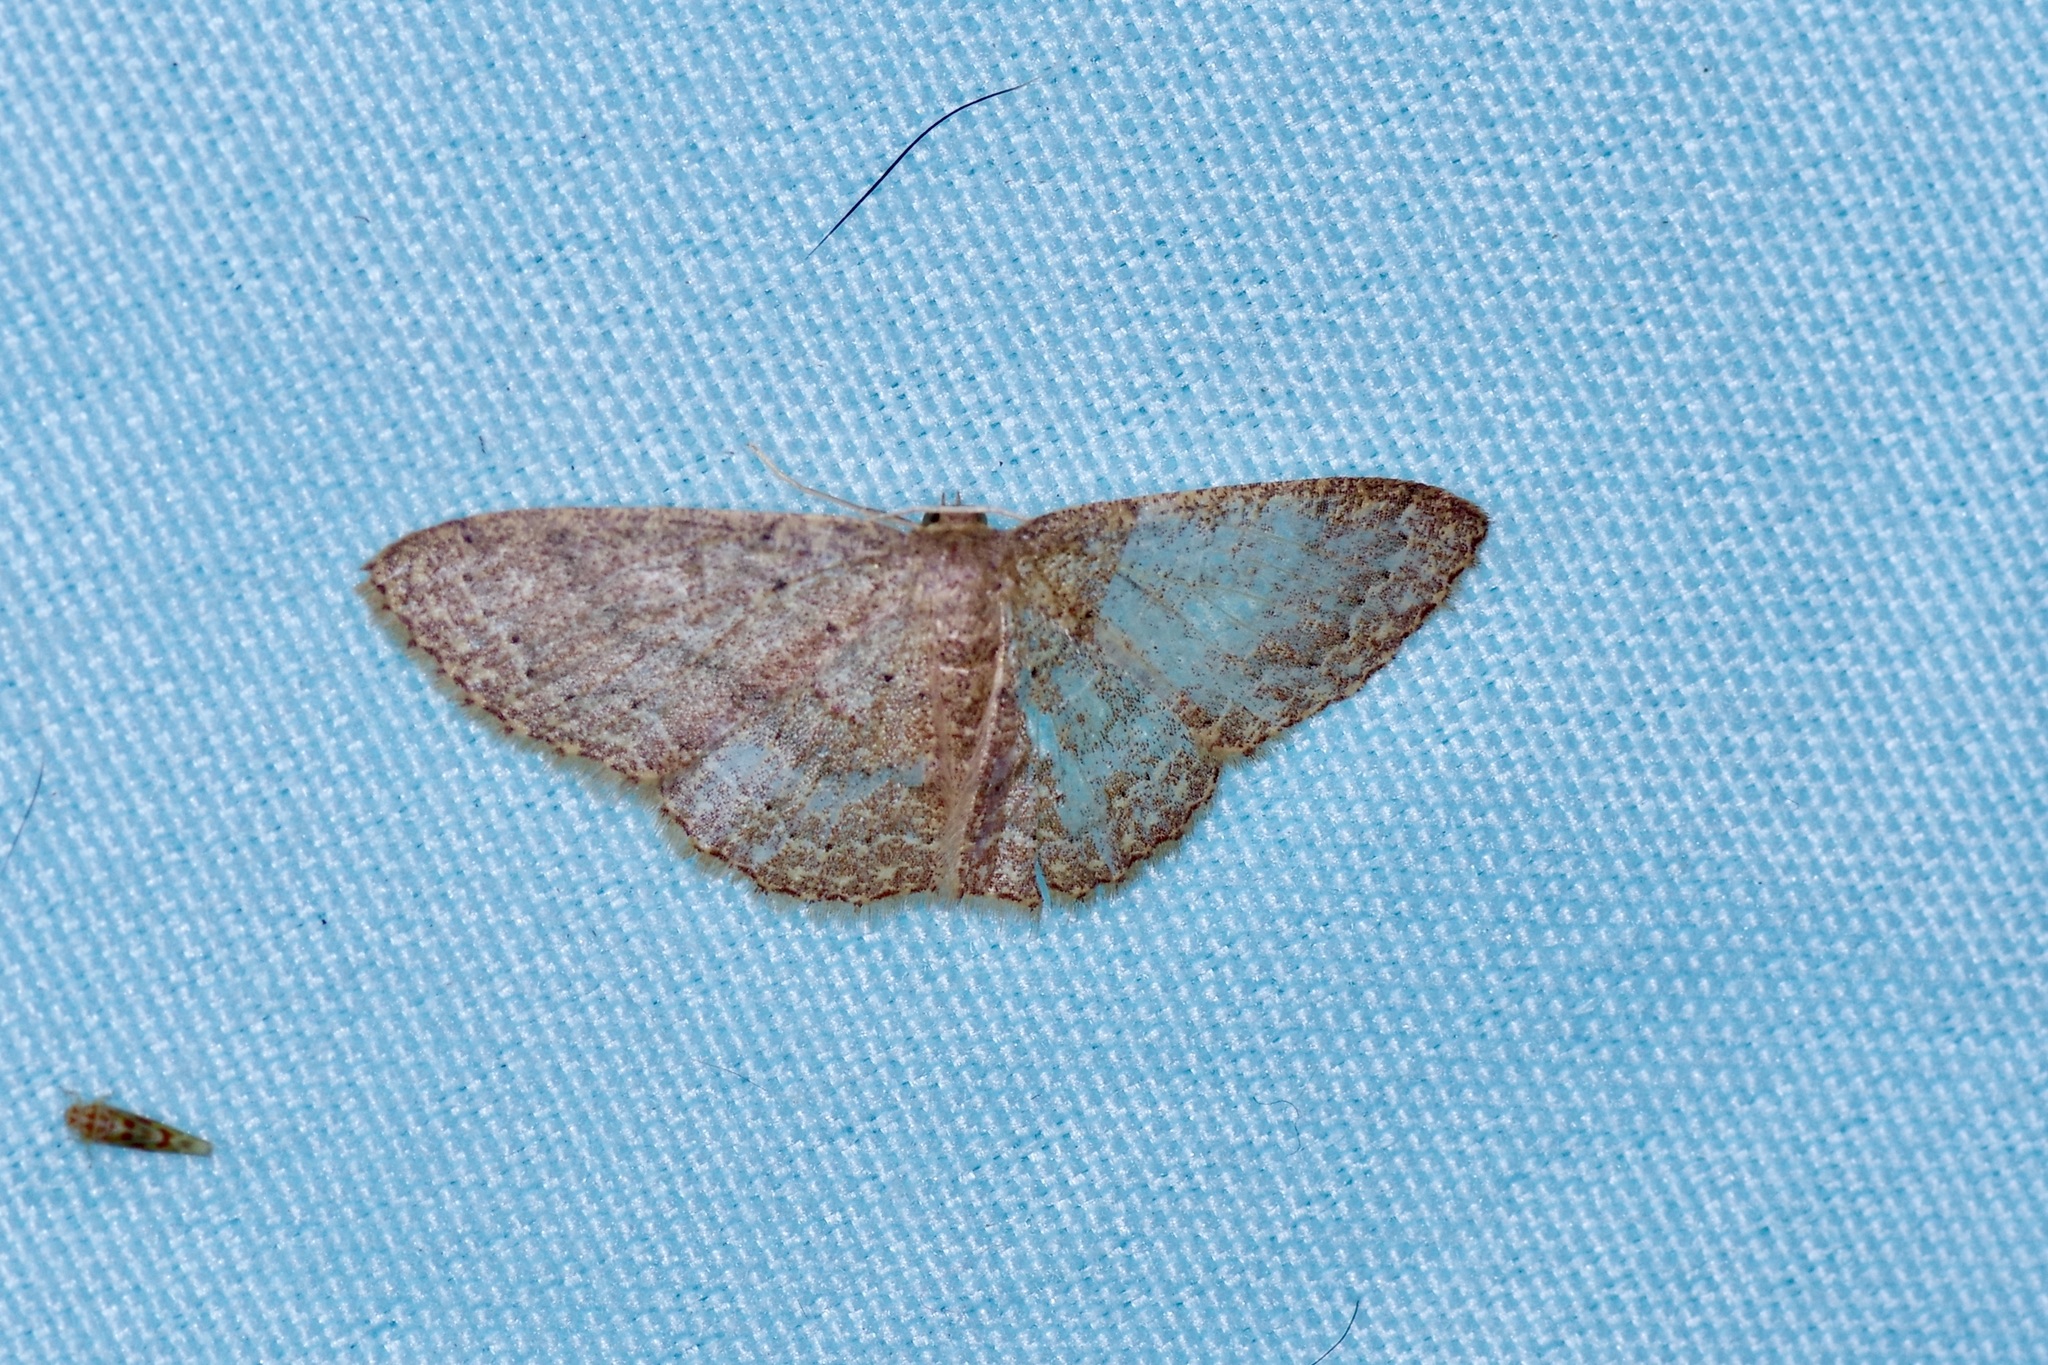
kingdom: Animalia
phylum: Arthropoda
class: Insecta
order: Lepidoptera
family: Geometridae
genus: Pleuroprucha
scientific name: Pleuroprucha insulsaria
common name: Common tan wave
